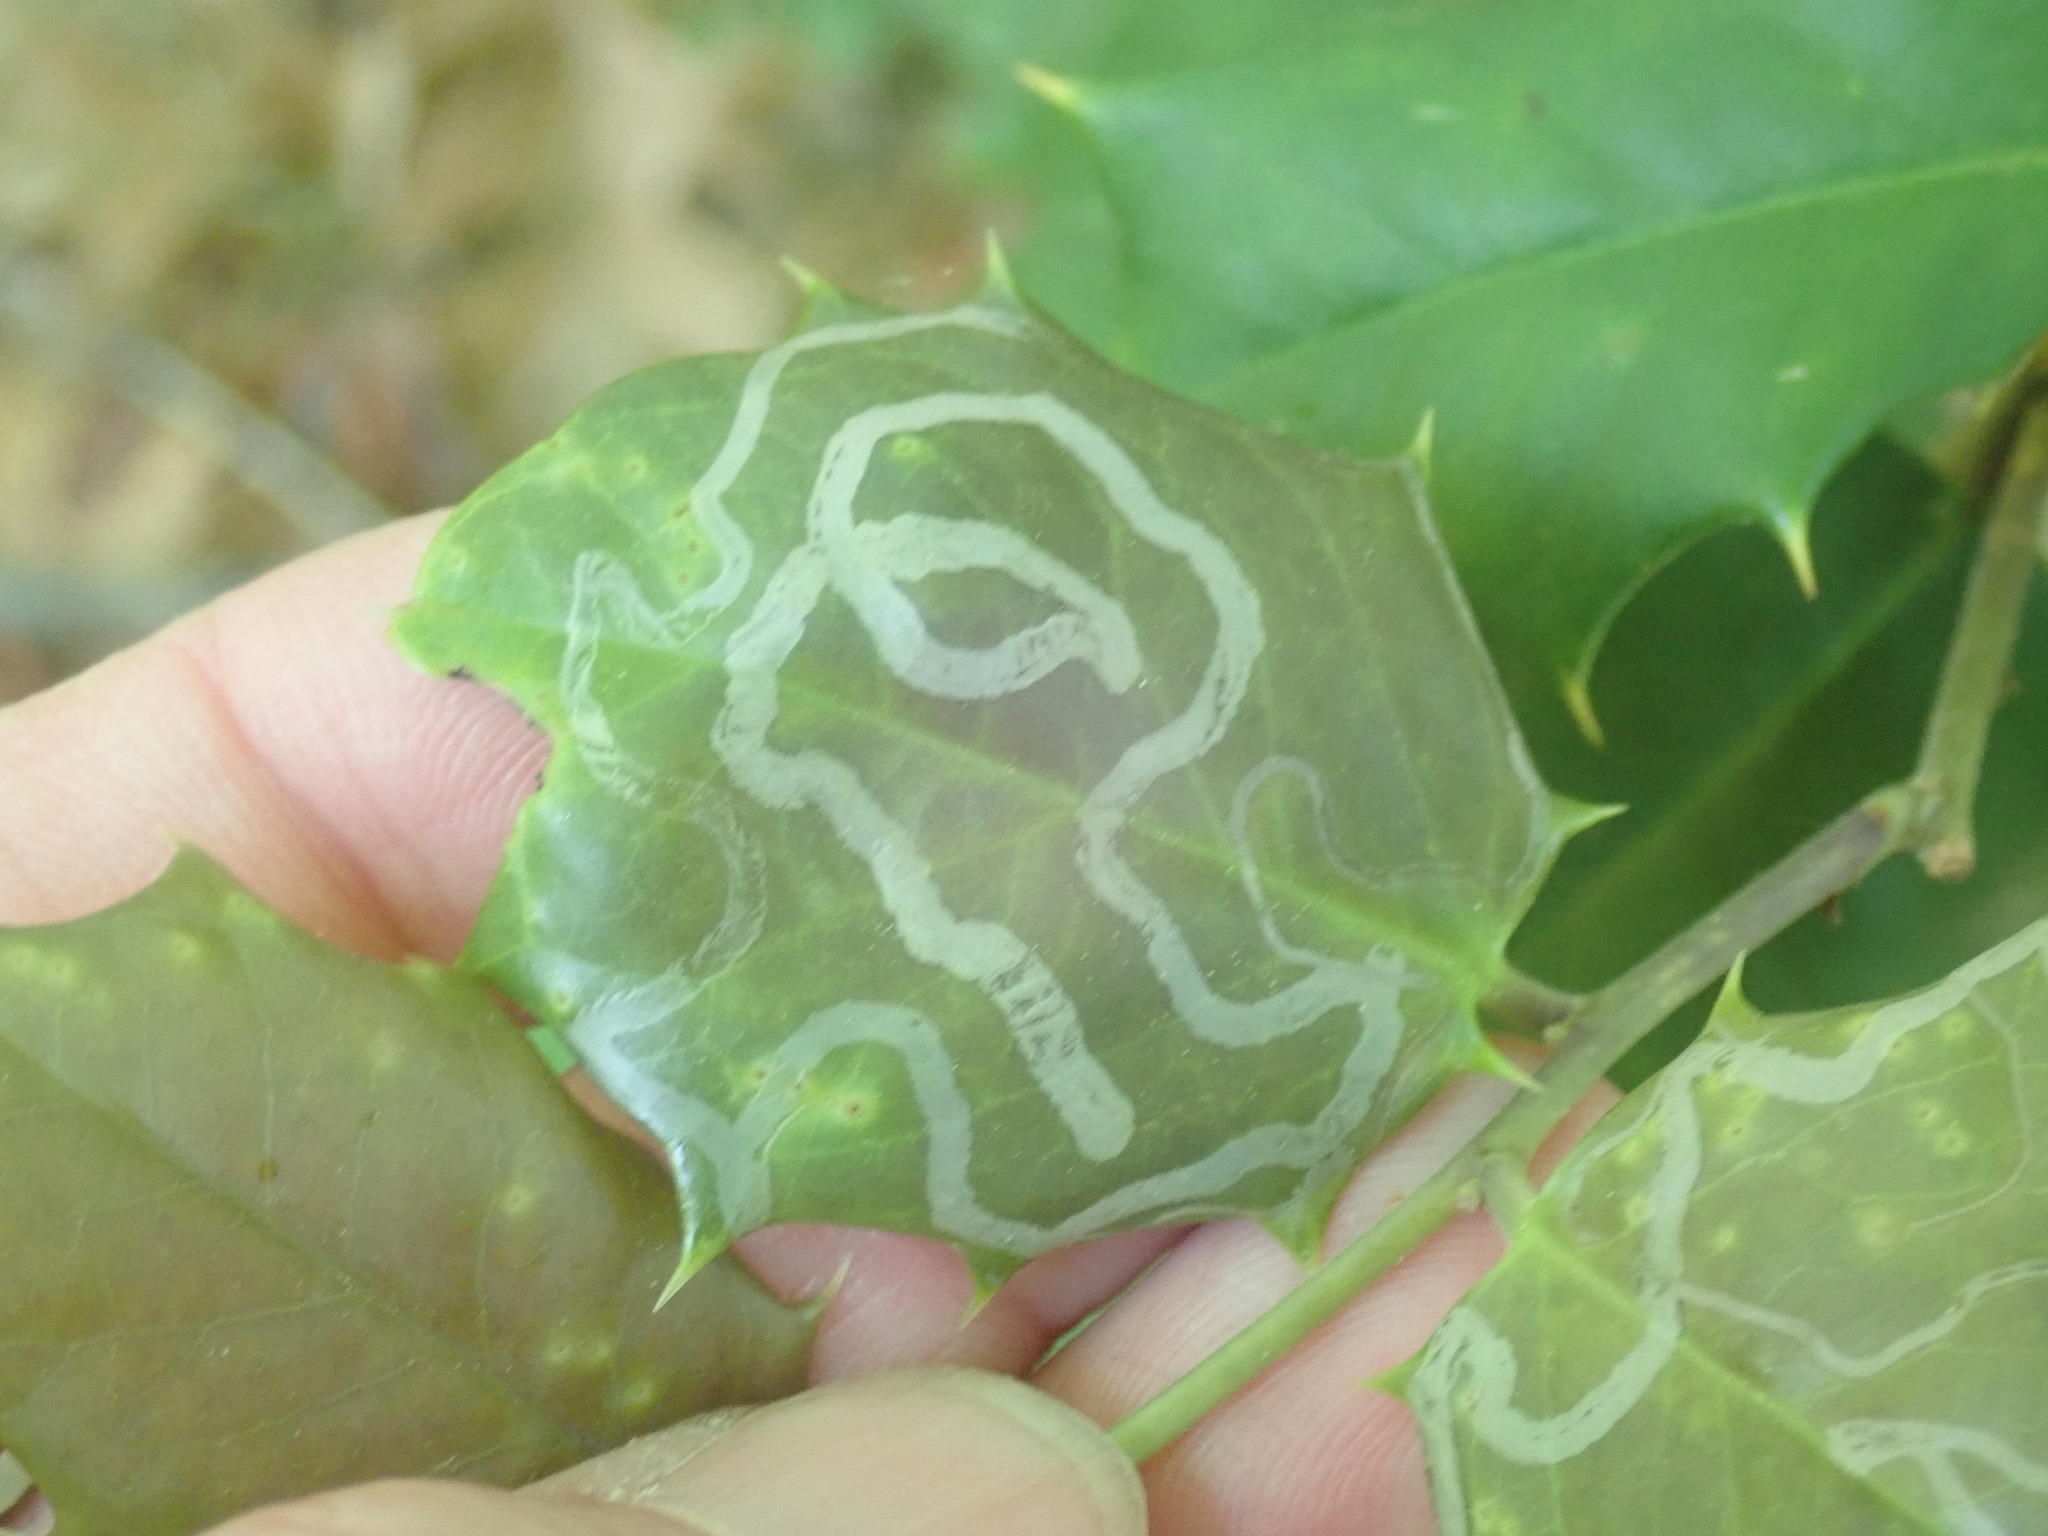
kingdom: Animalia
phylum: Arthropoda
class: Insecta
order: Diptera
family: Agromyzidae
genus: Phytomyza
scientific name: Phytomyza opacae
